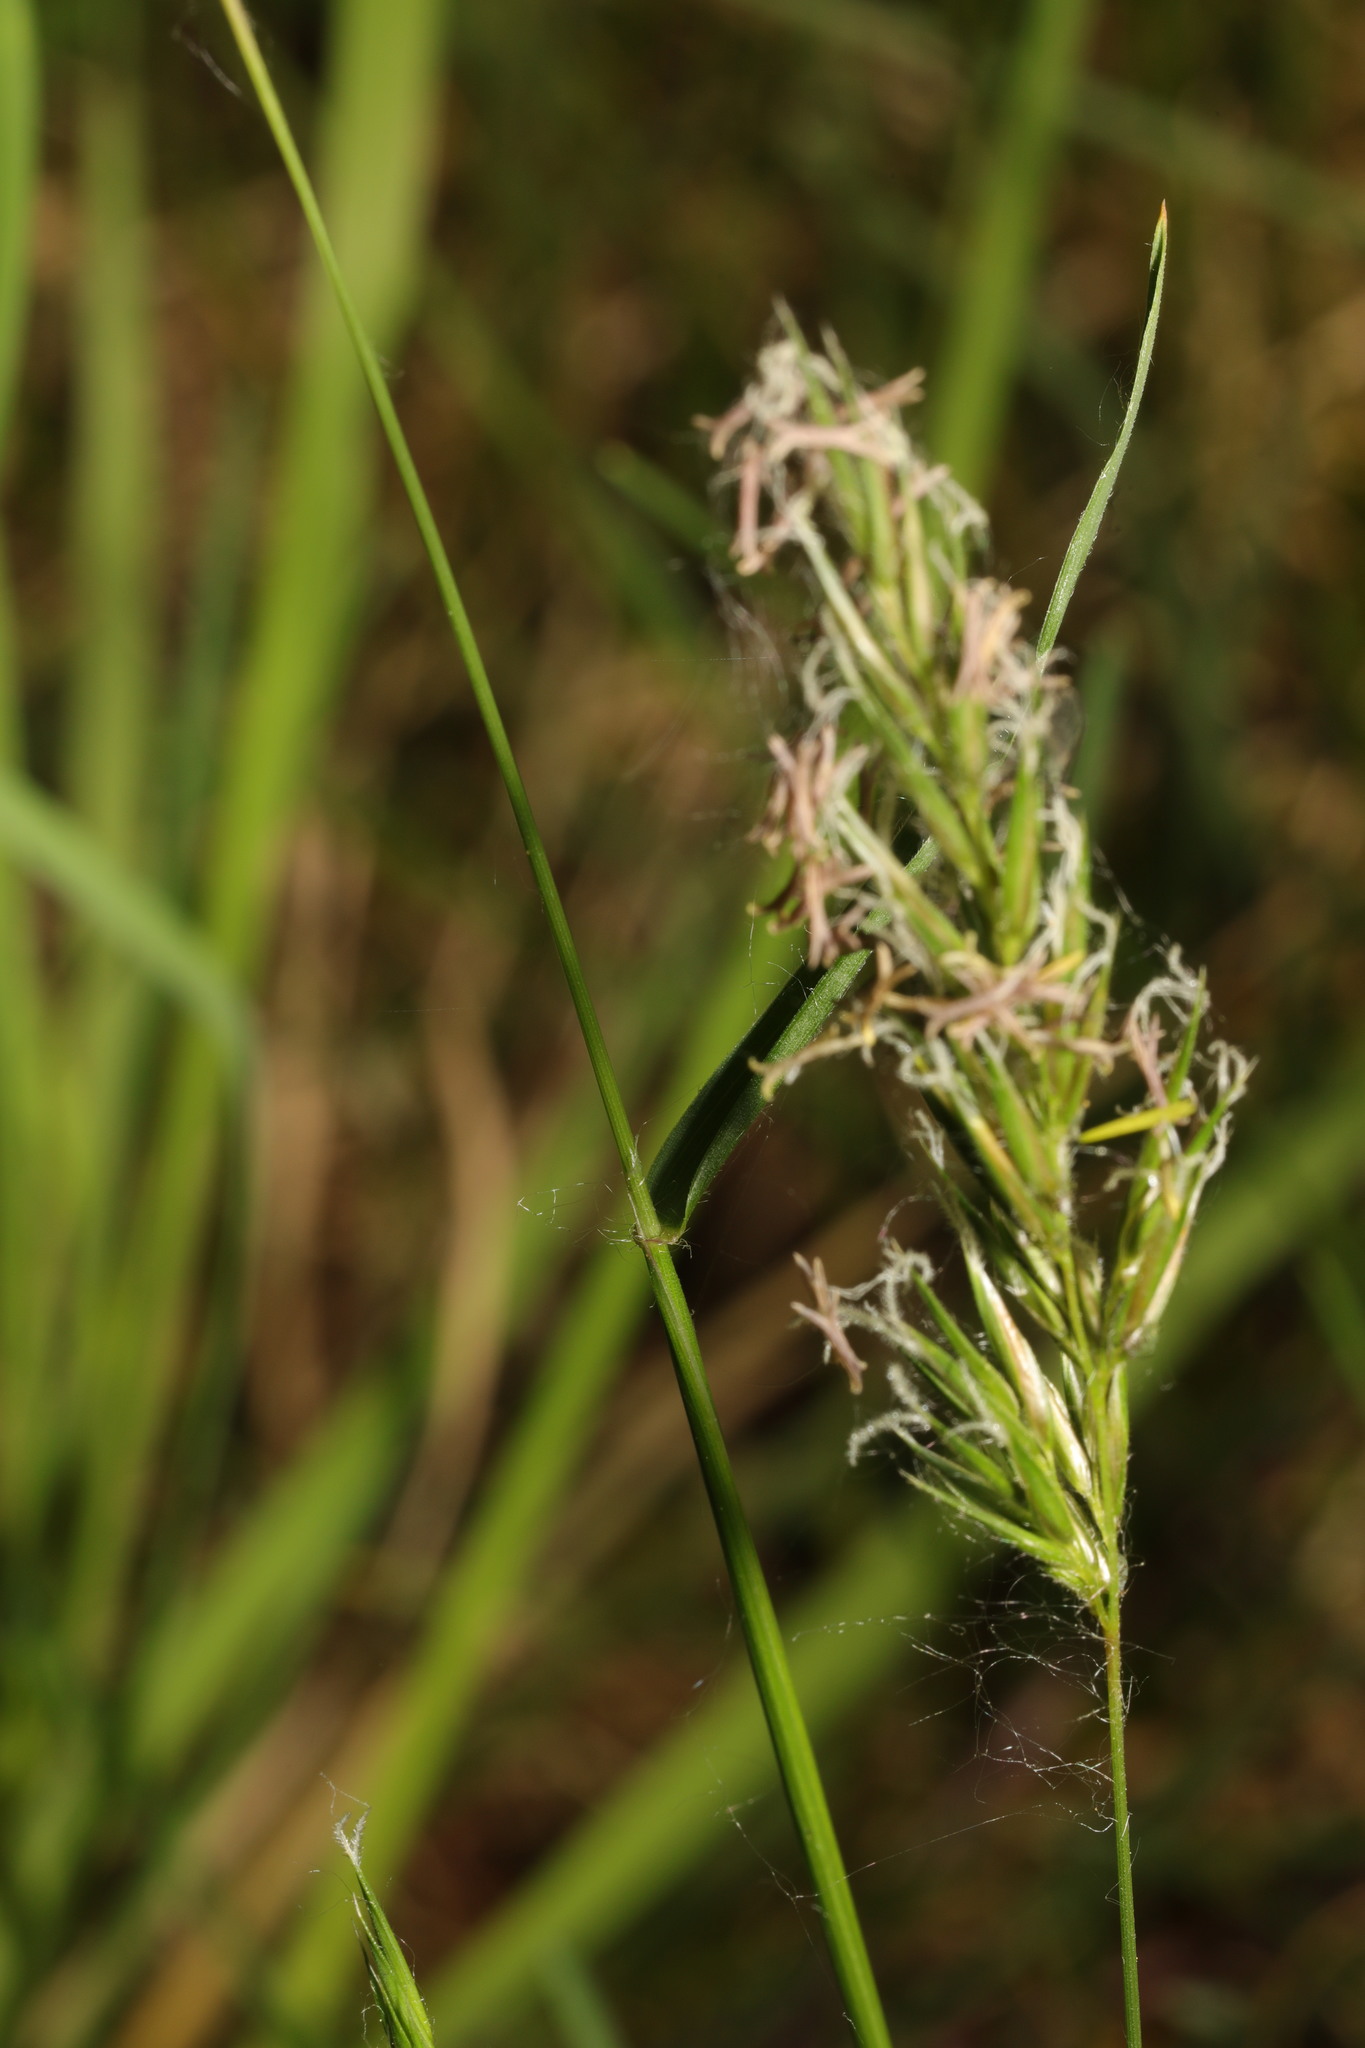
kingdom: Plantae
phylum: Tracheophyta
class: Liliopsida
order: Poales
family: Poaceae
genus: Anthoxanthum
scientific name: Anthoxanthum odoratum
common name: Sweet vernalgrass
